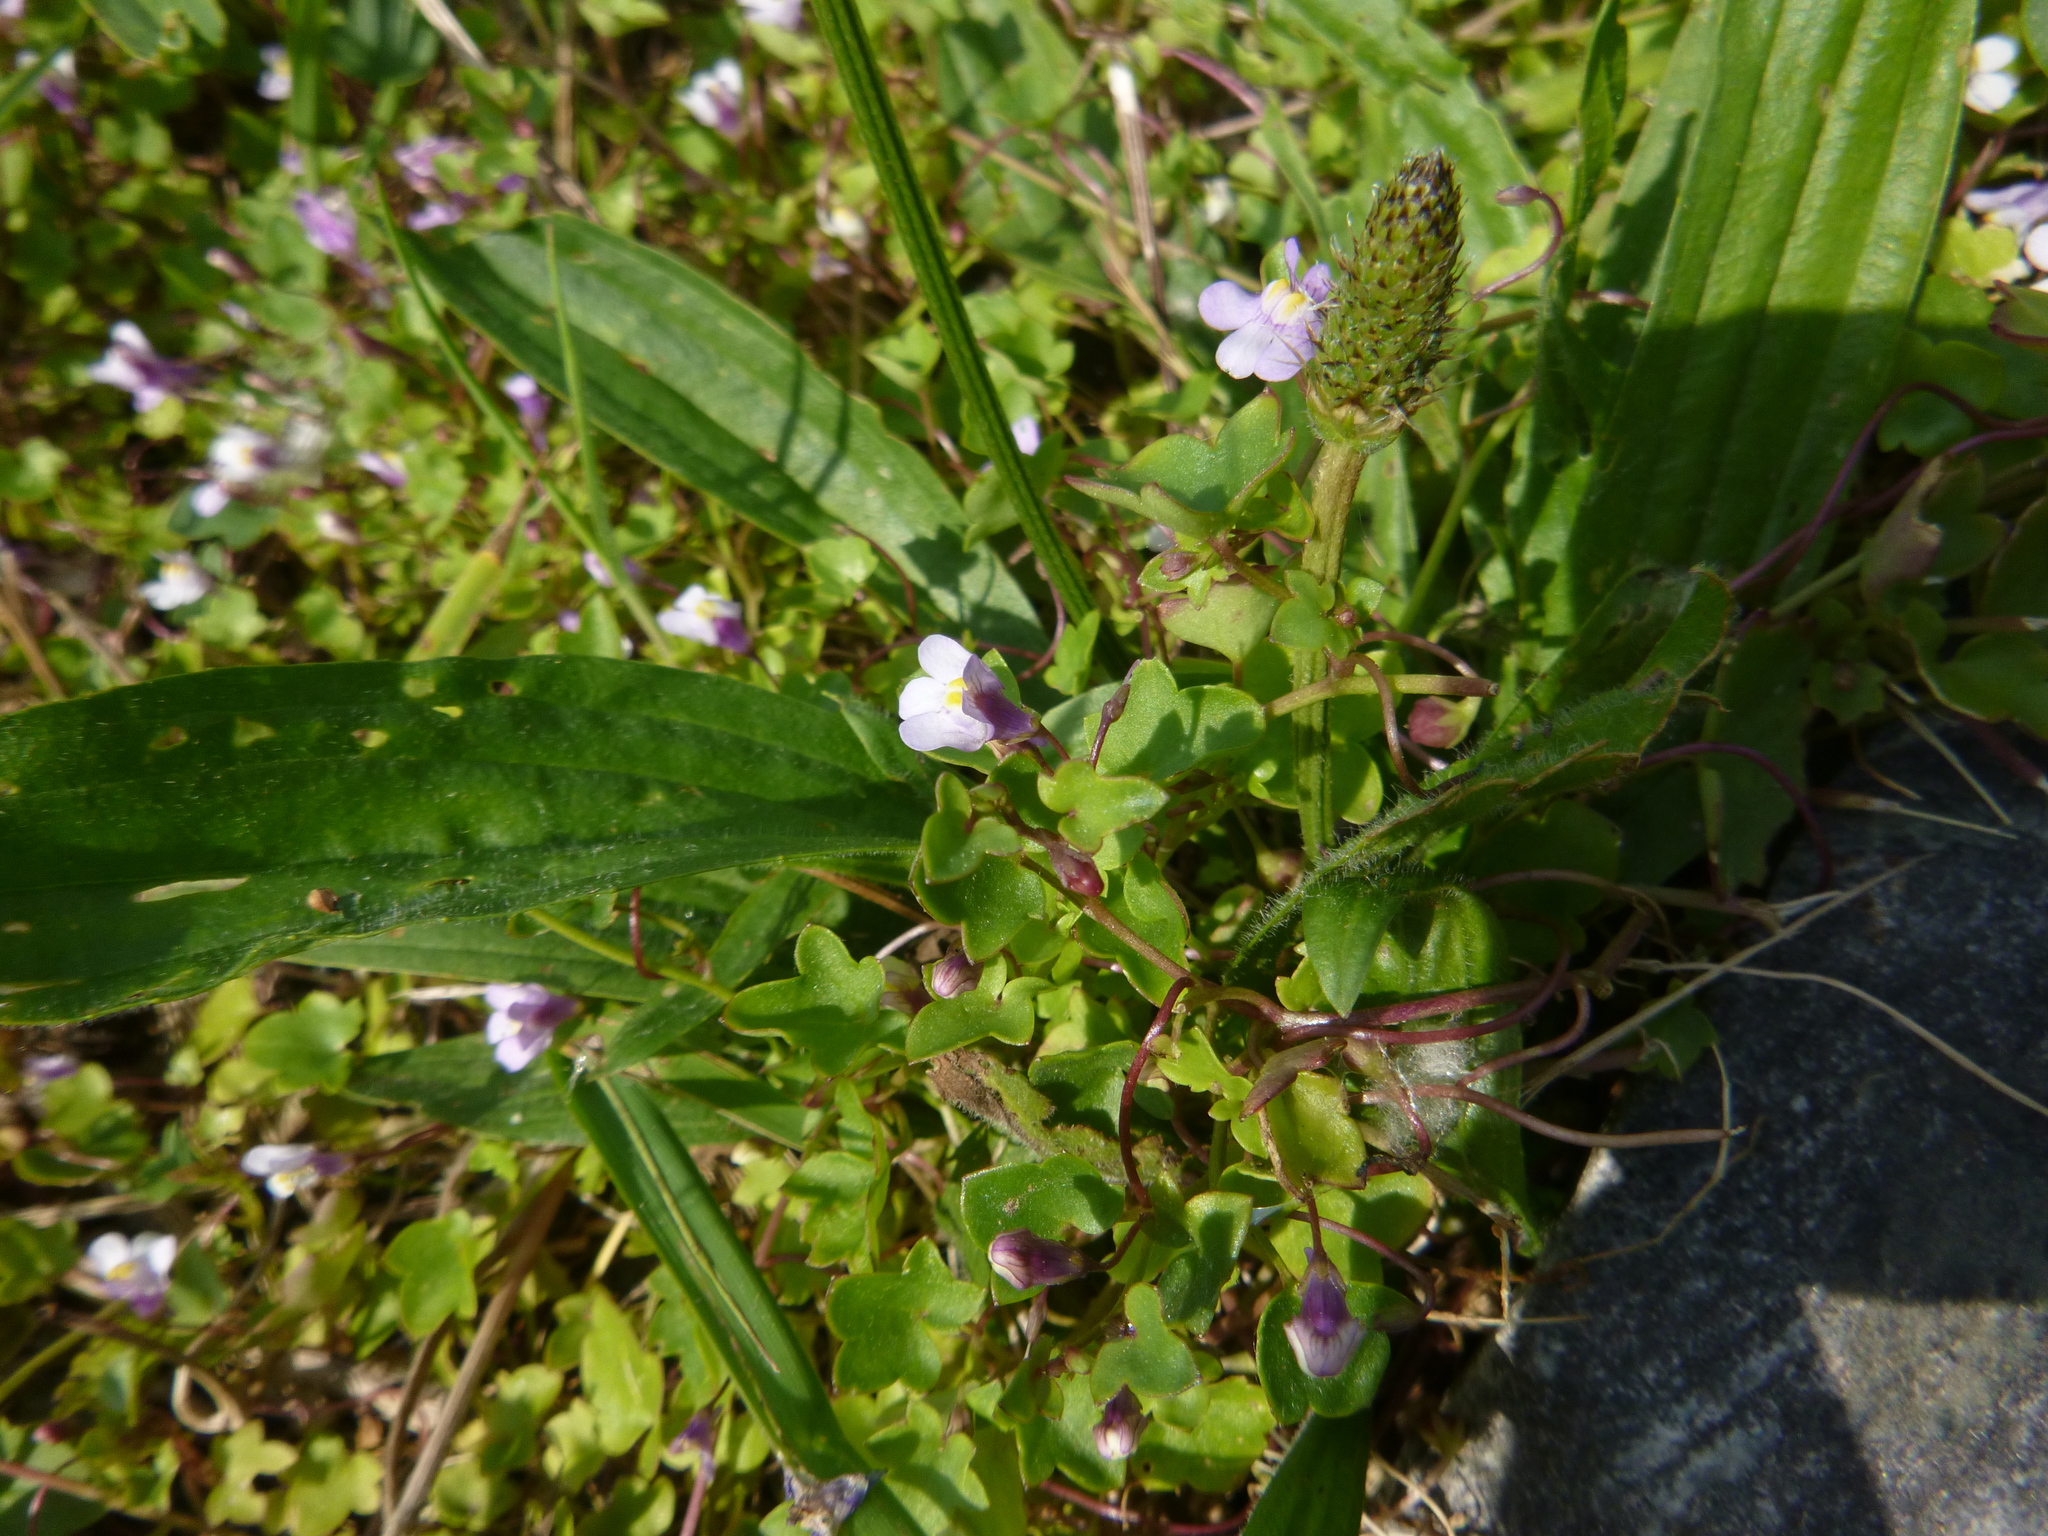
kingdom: Plantae
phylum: Tracheophyta
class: Magnoliopsida
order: Lamiales
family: Plantaginaceae
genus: Cymbalaria
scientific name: Cymbalaria muralis
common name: Ivy-leaved toadflax
